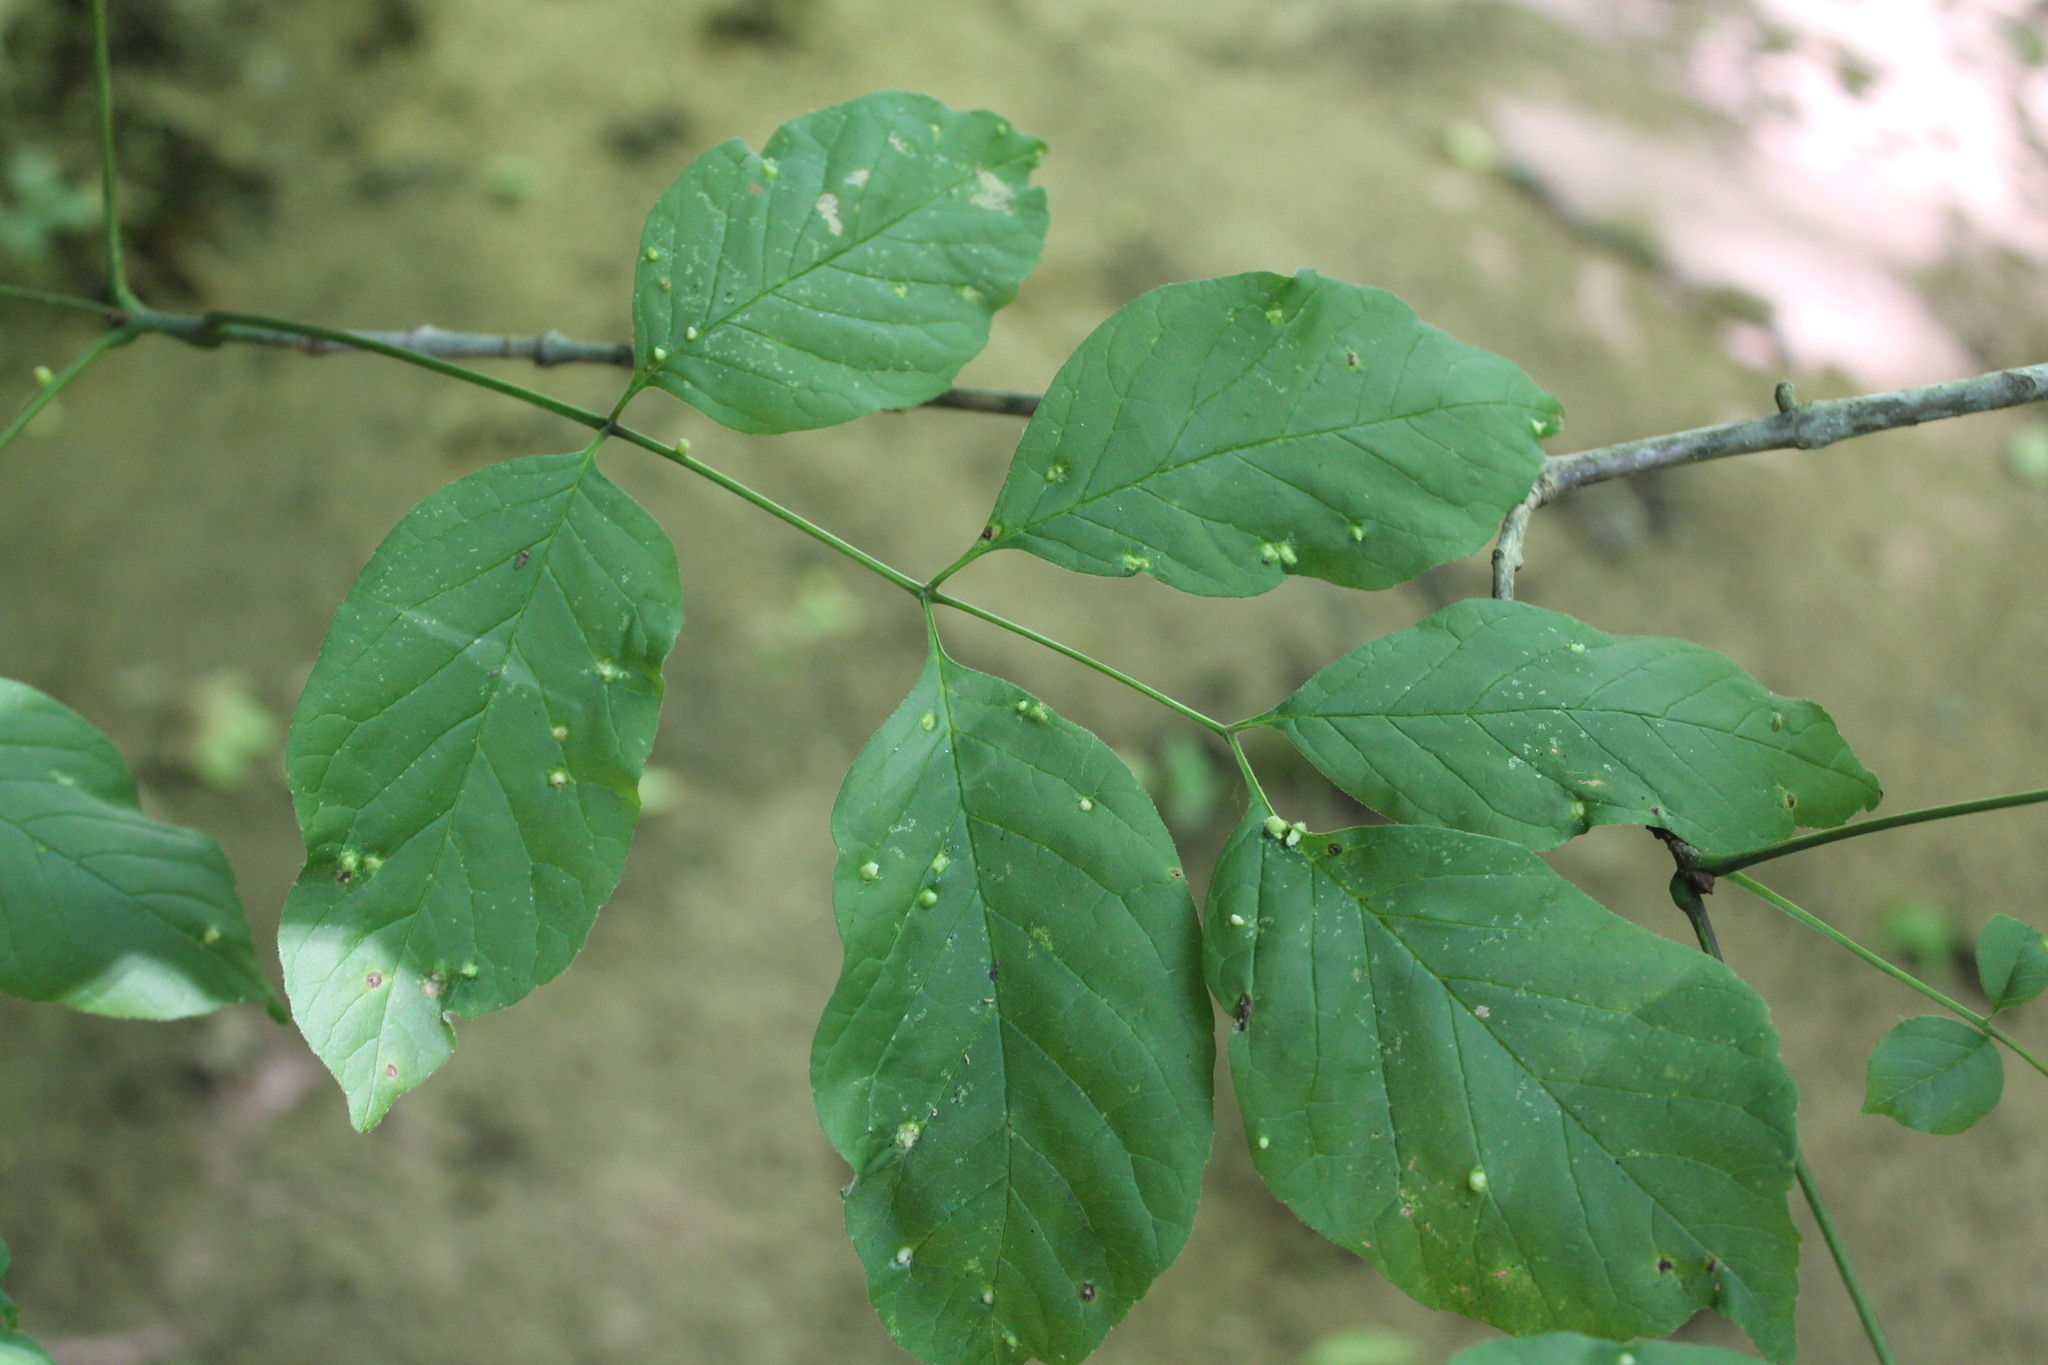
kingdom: Animalia
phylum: Arthropoda
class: Arachnida
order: Trombidiformes
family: Eriophyidae
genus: Aceria
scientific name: Aceria fraxinicola
